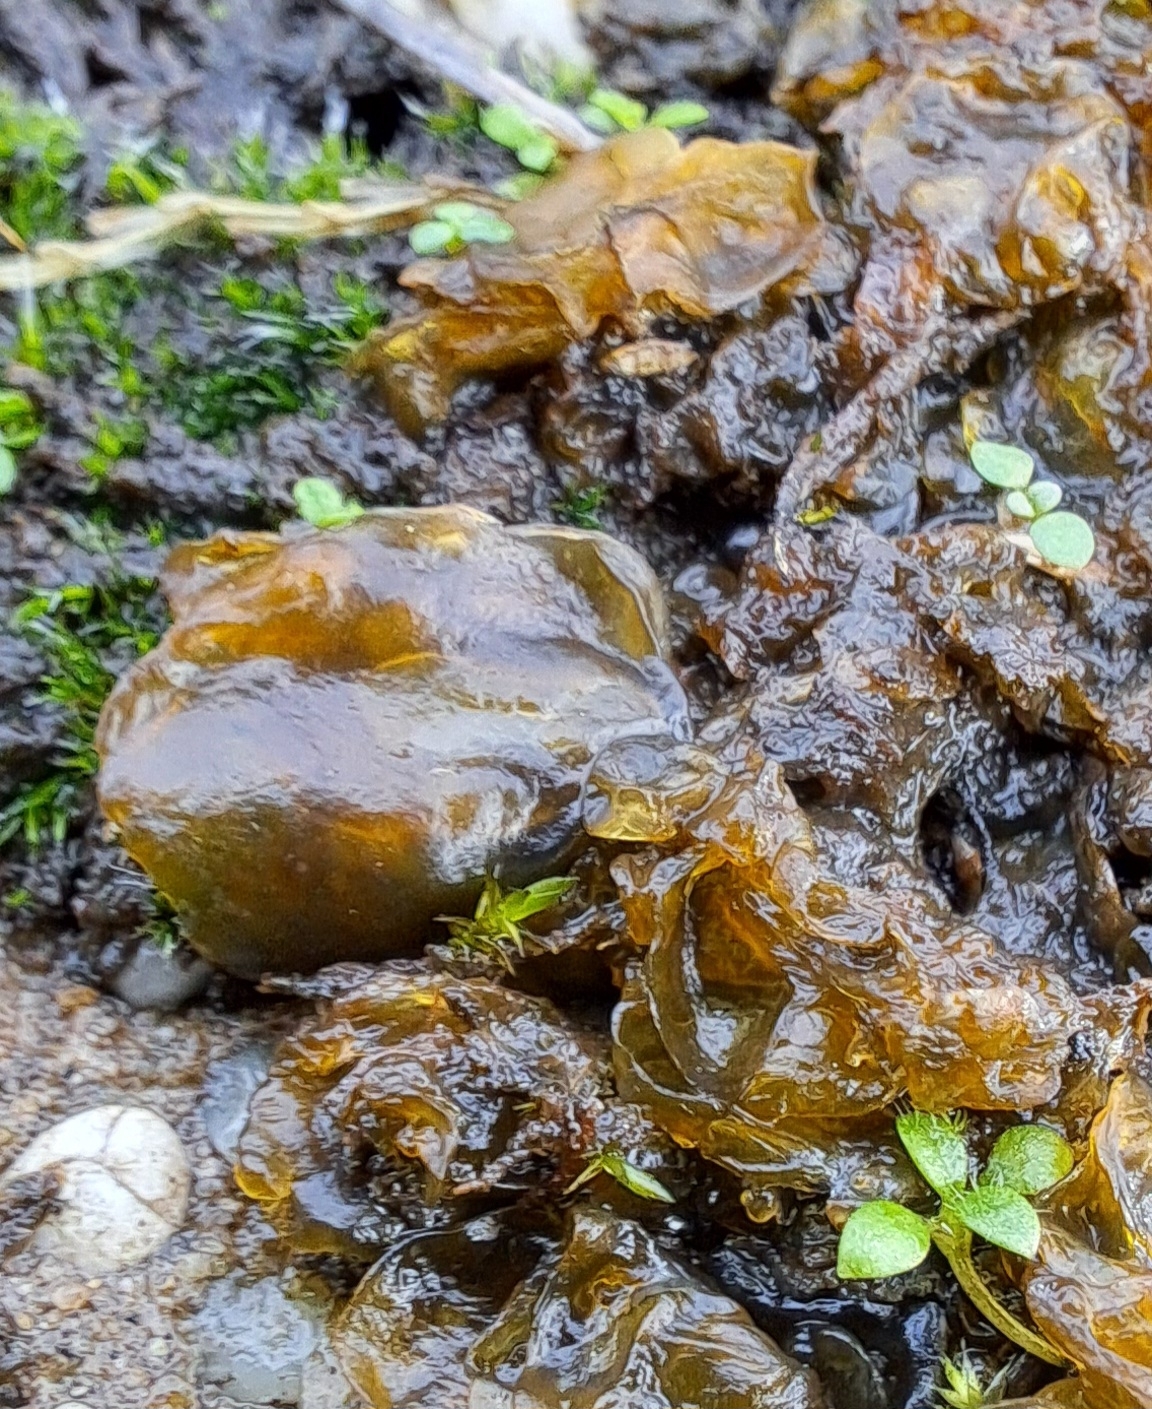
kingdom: Bacteria
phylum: Cyanobacteria
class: Cyanobacteriia
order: Cyanobacteriales
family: Nostocaceae
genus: Nostoc
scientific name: Nostoc commune
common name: Star jelly
